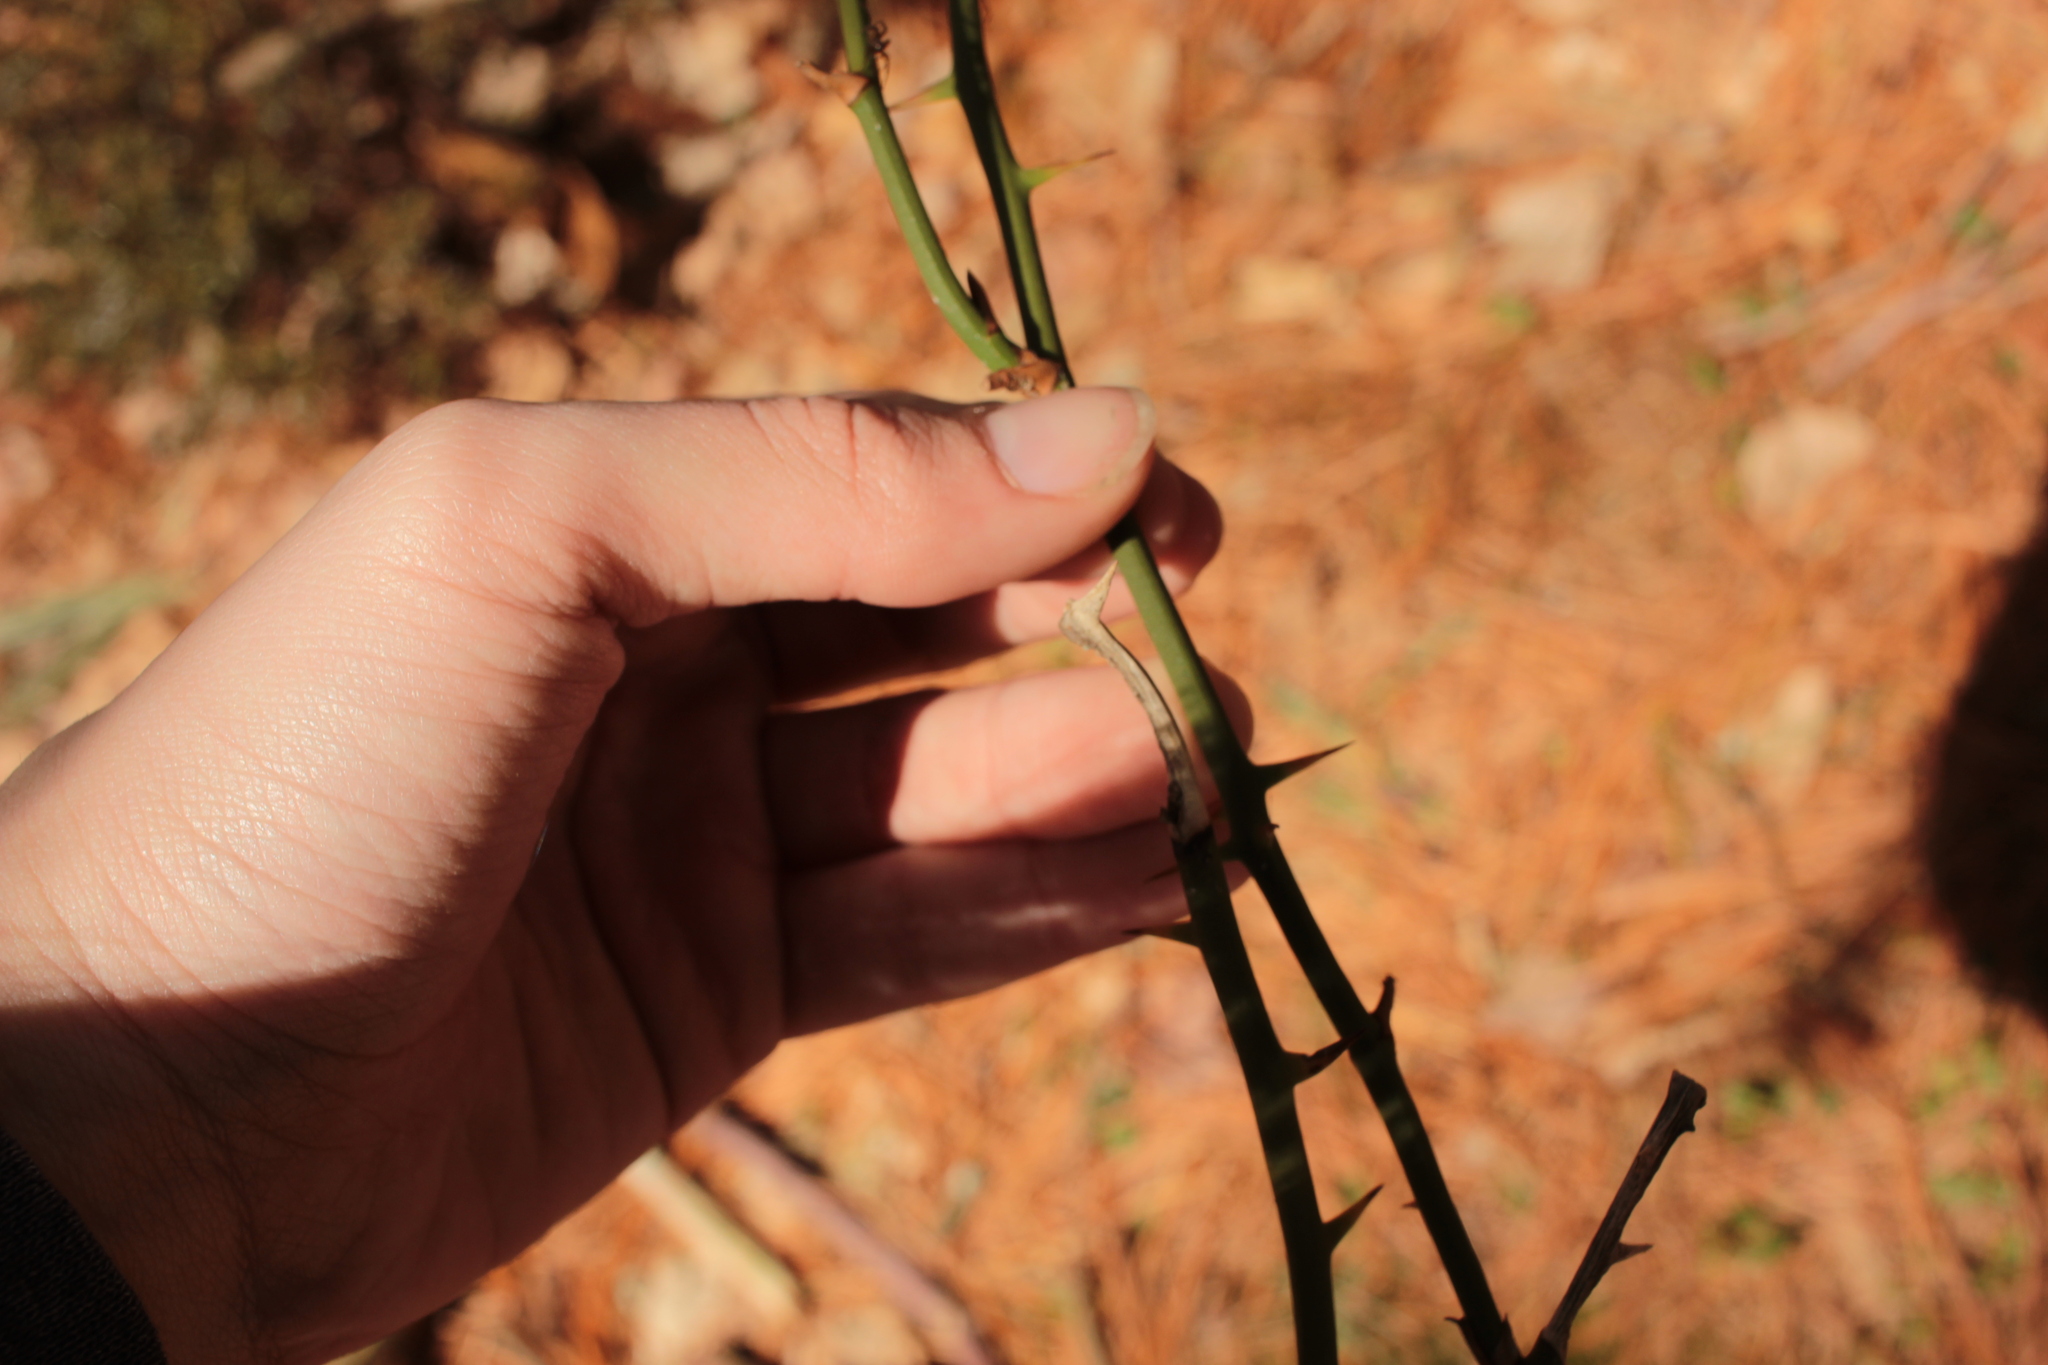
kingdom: Plantae
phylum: Tracheophyta
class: Liliopsida
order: Liliales
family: Smilacaceae
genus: Smilax
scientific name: Smilax rotundifolia
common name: Bullbriar
